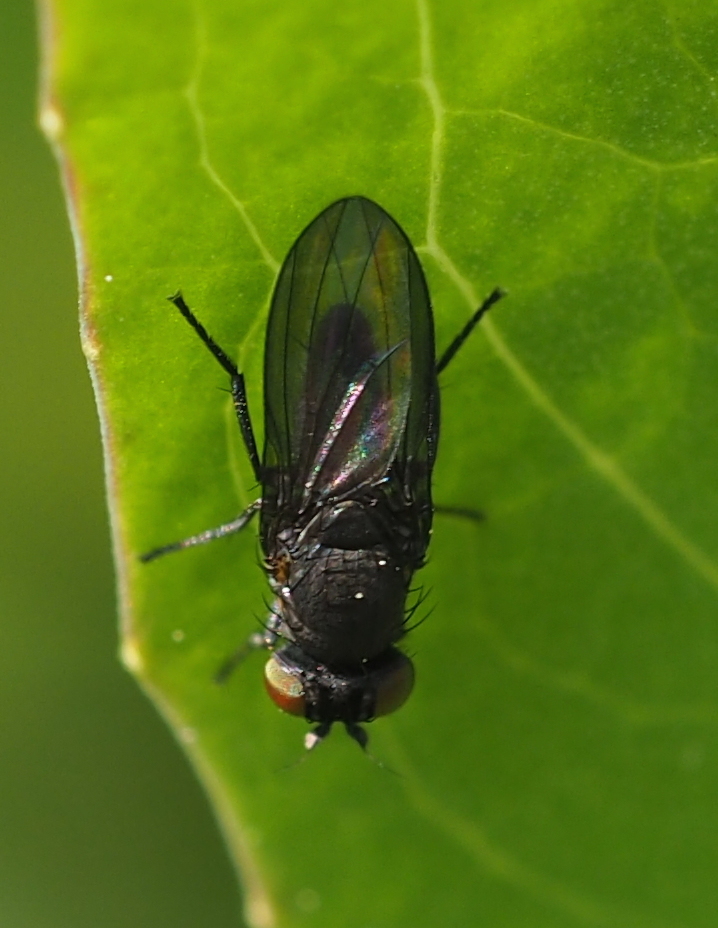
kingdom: Animalia
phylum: Arthropoda
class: Insecta
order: Diptera
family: Lauxaniidae
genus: Cnemacantha
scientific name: Cnemacantha muscaria
